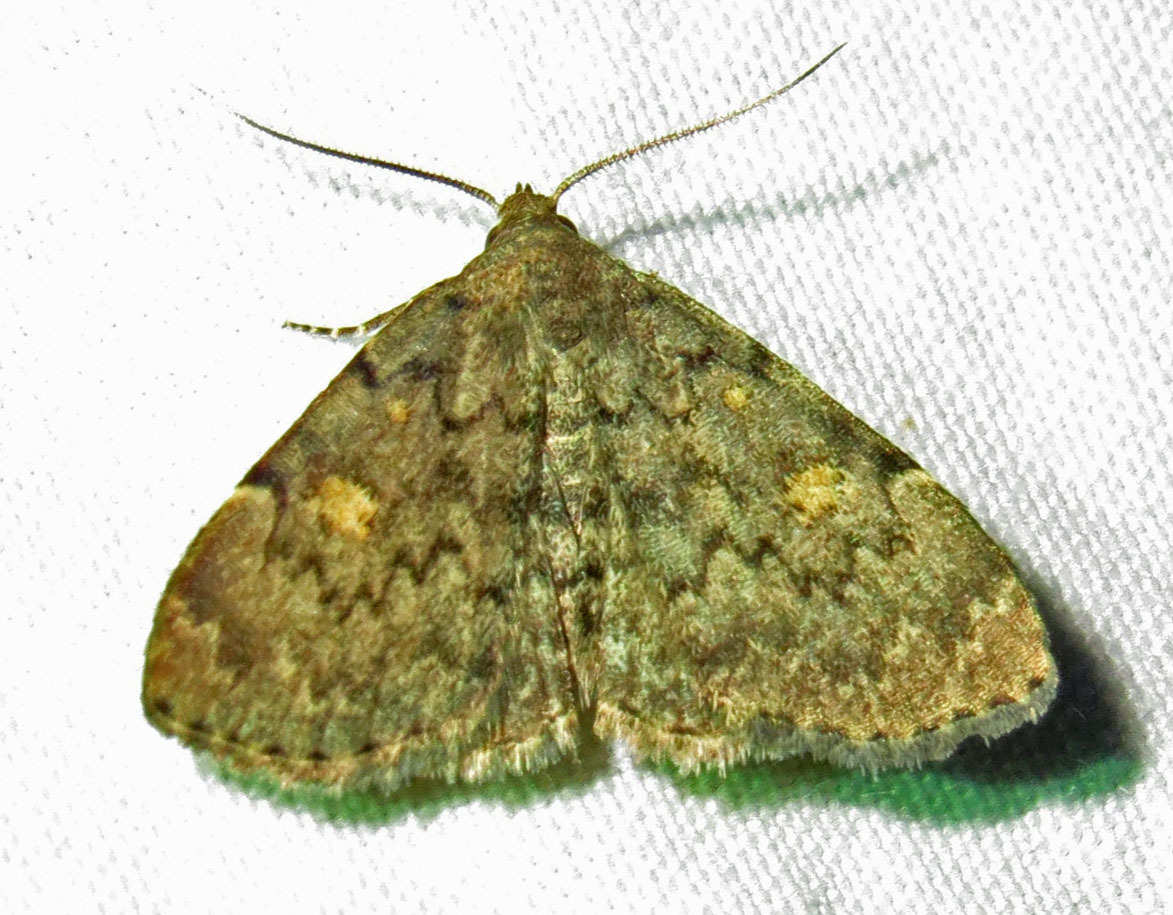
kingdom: Animalia
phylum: Arthropoda
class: Insecta
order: Lepidoptera
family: Erebidae
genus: Idia
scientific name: Idia aemula
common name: Common idia moth
